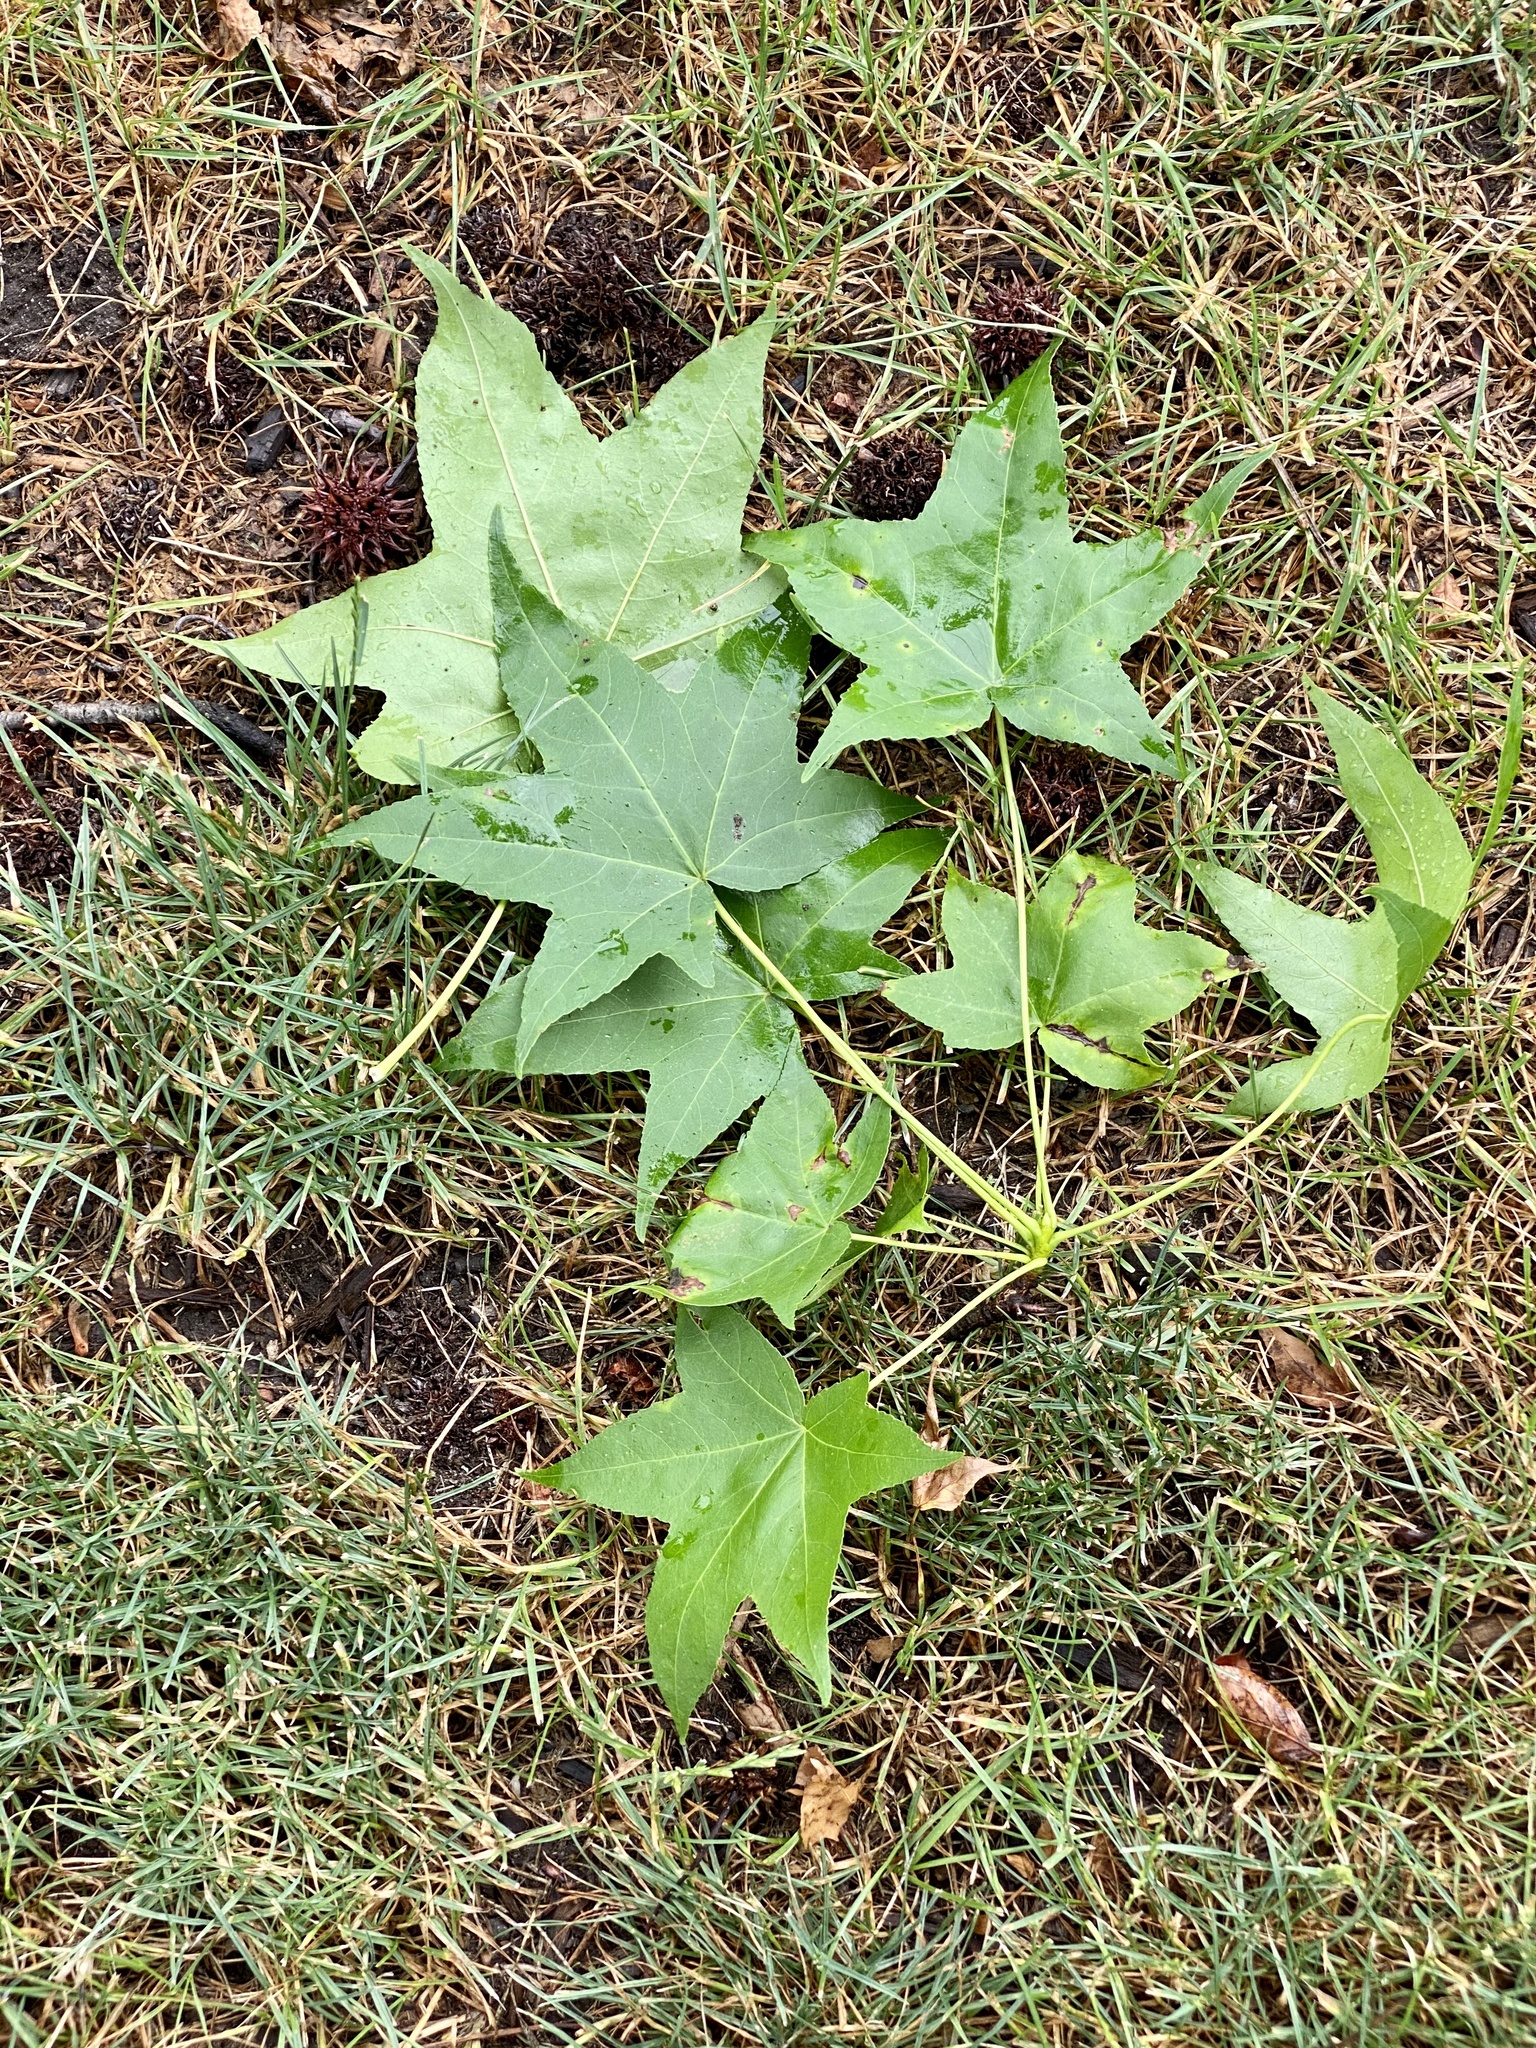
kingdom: Plantae
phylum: Tracheophyta
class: Magnoliopsida
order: Saxifragales
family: Altingiaceae
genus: Liquidambar
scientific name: Liquidambar styraciflua
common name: Sweet gum
